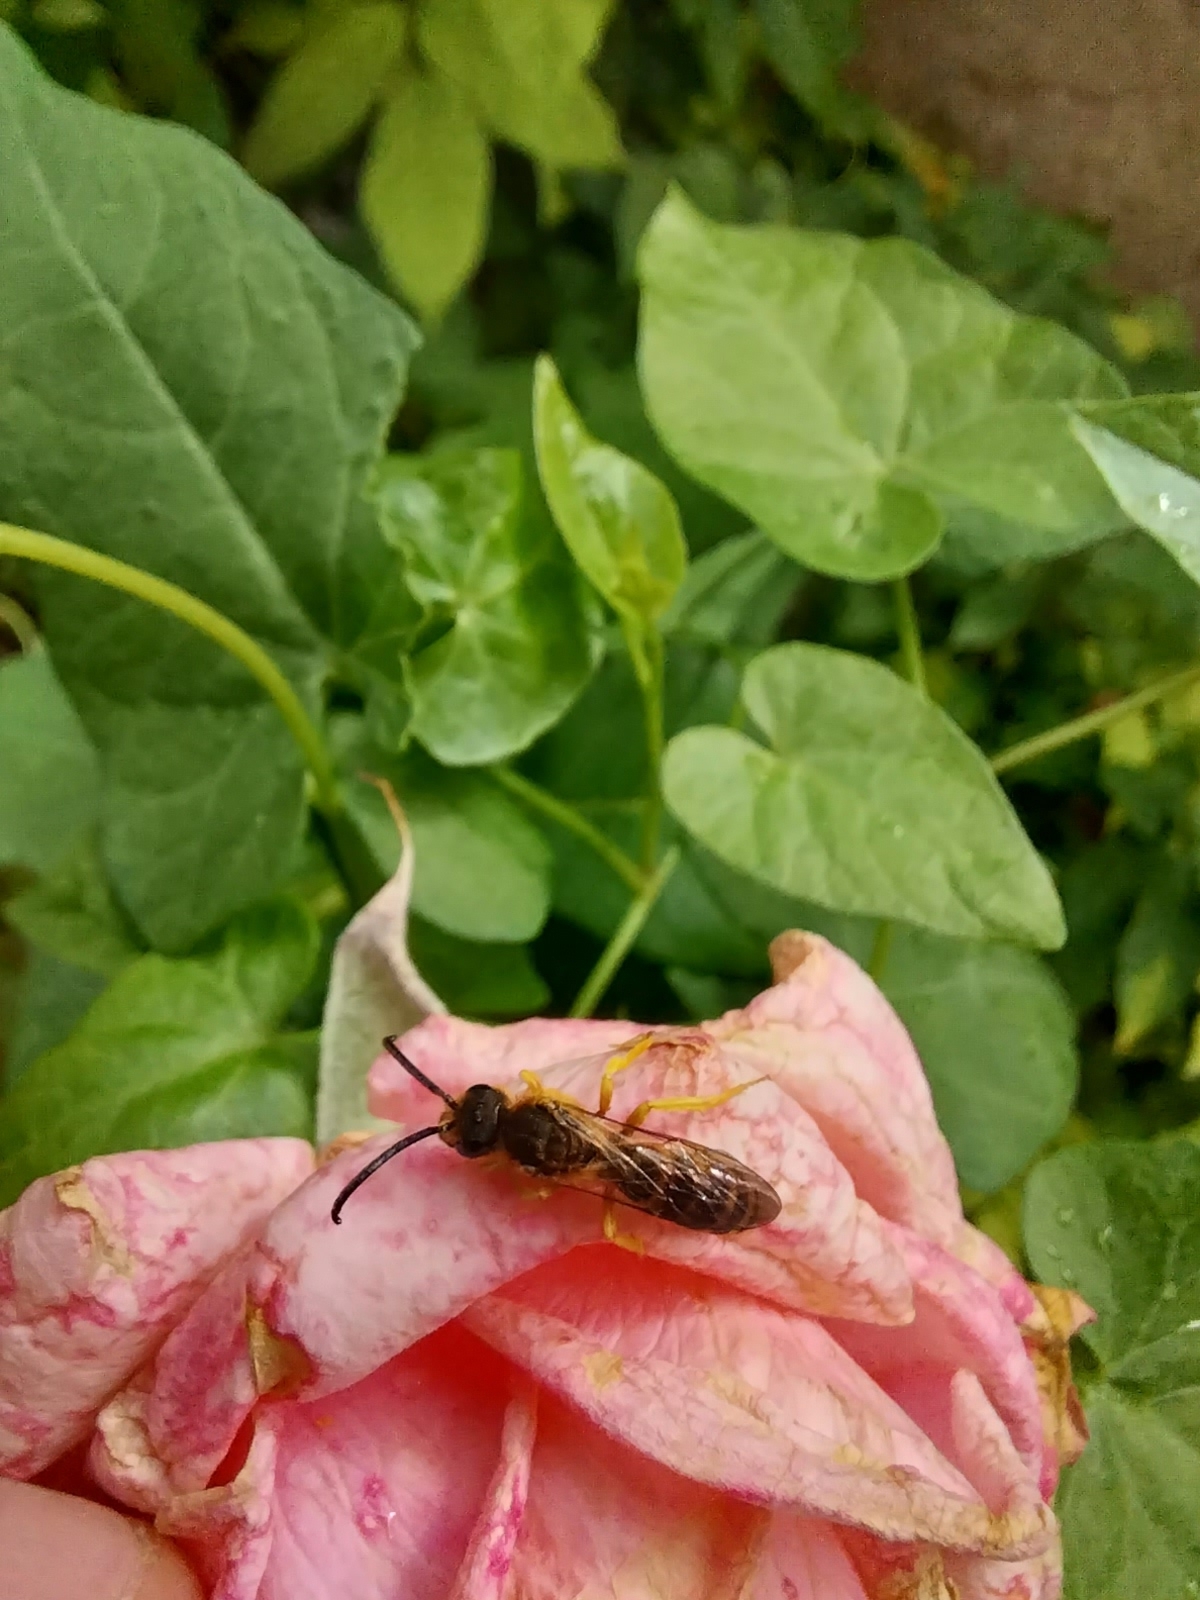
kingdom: Animalia
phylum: Arthropoda
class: Insecta
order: Hymenoptera
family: Halictidae
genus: Halictus
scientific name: Halictus scabiosae
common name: Great banded furrow bee
